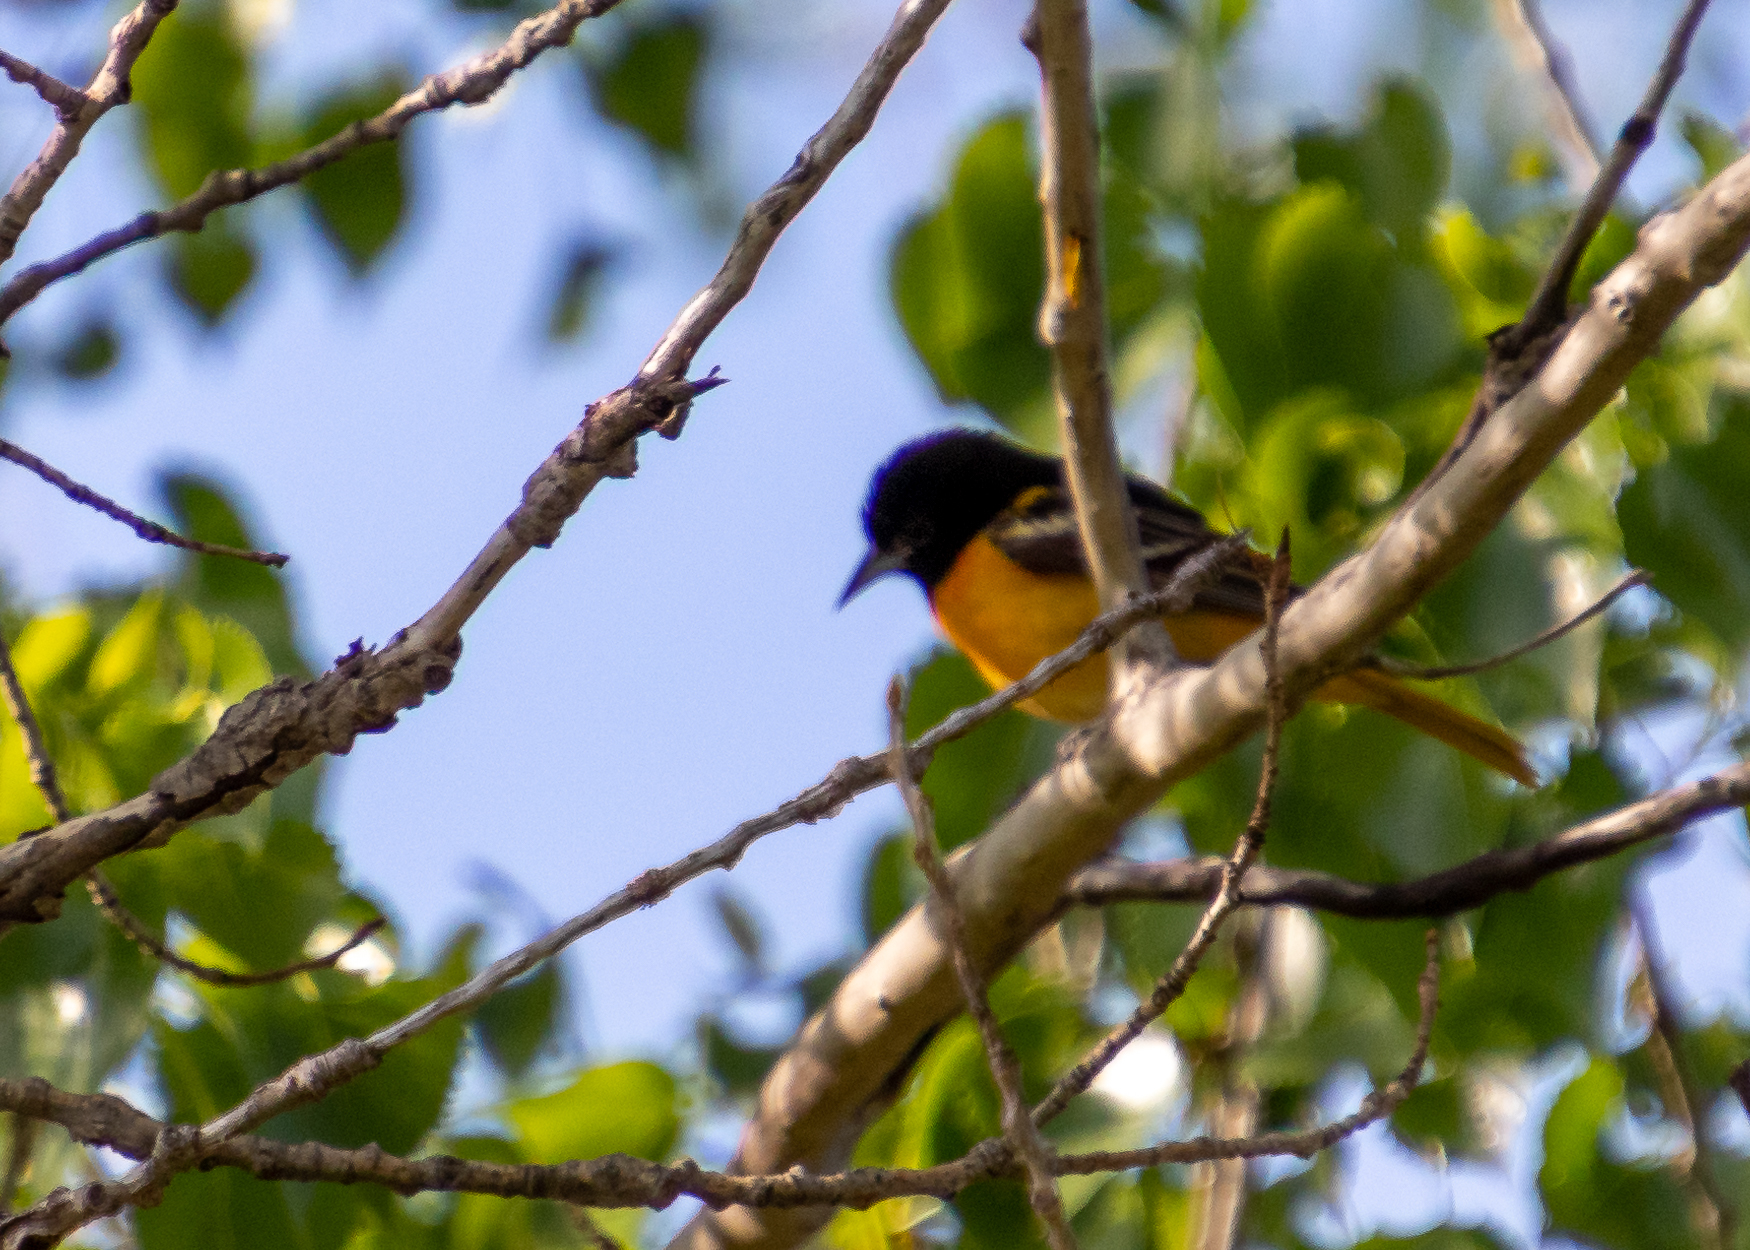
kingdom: Animalia
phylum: Chordata
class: Aves
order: Passeriformes
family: Icteridae
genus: Icterus
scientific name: Icterus galbula
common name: Baltimore oriole
